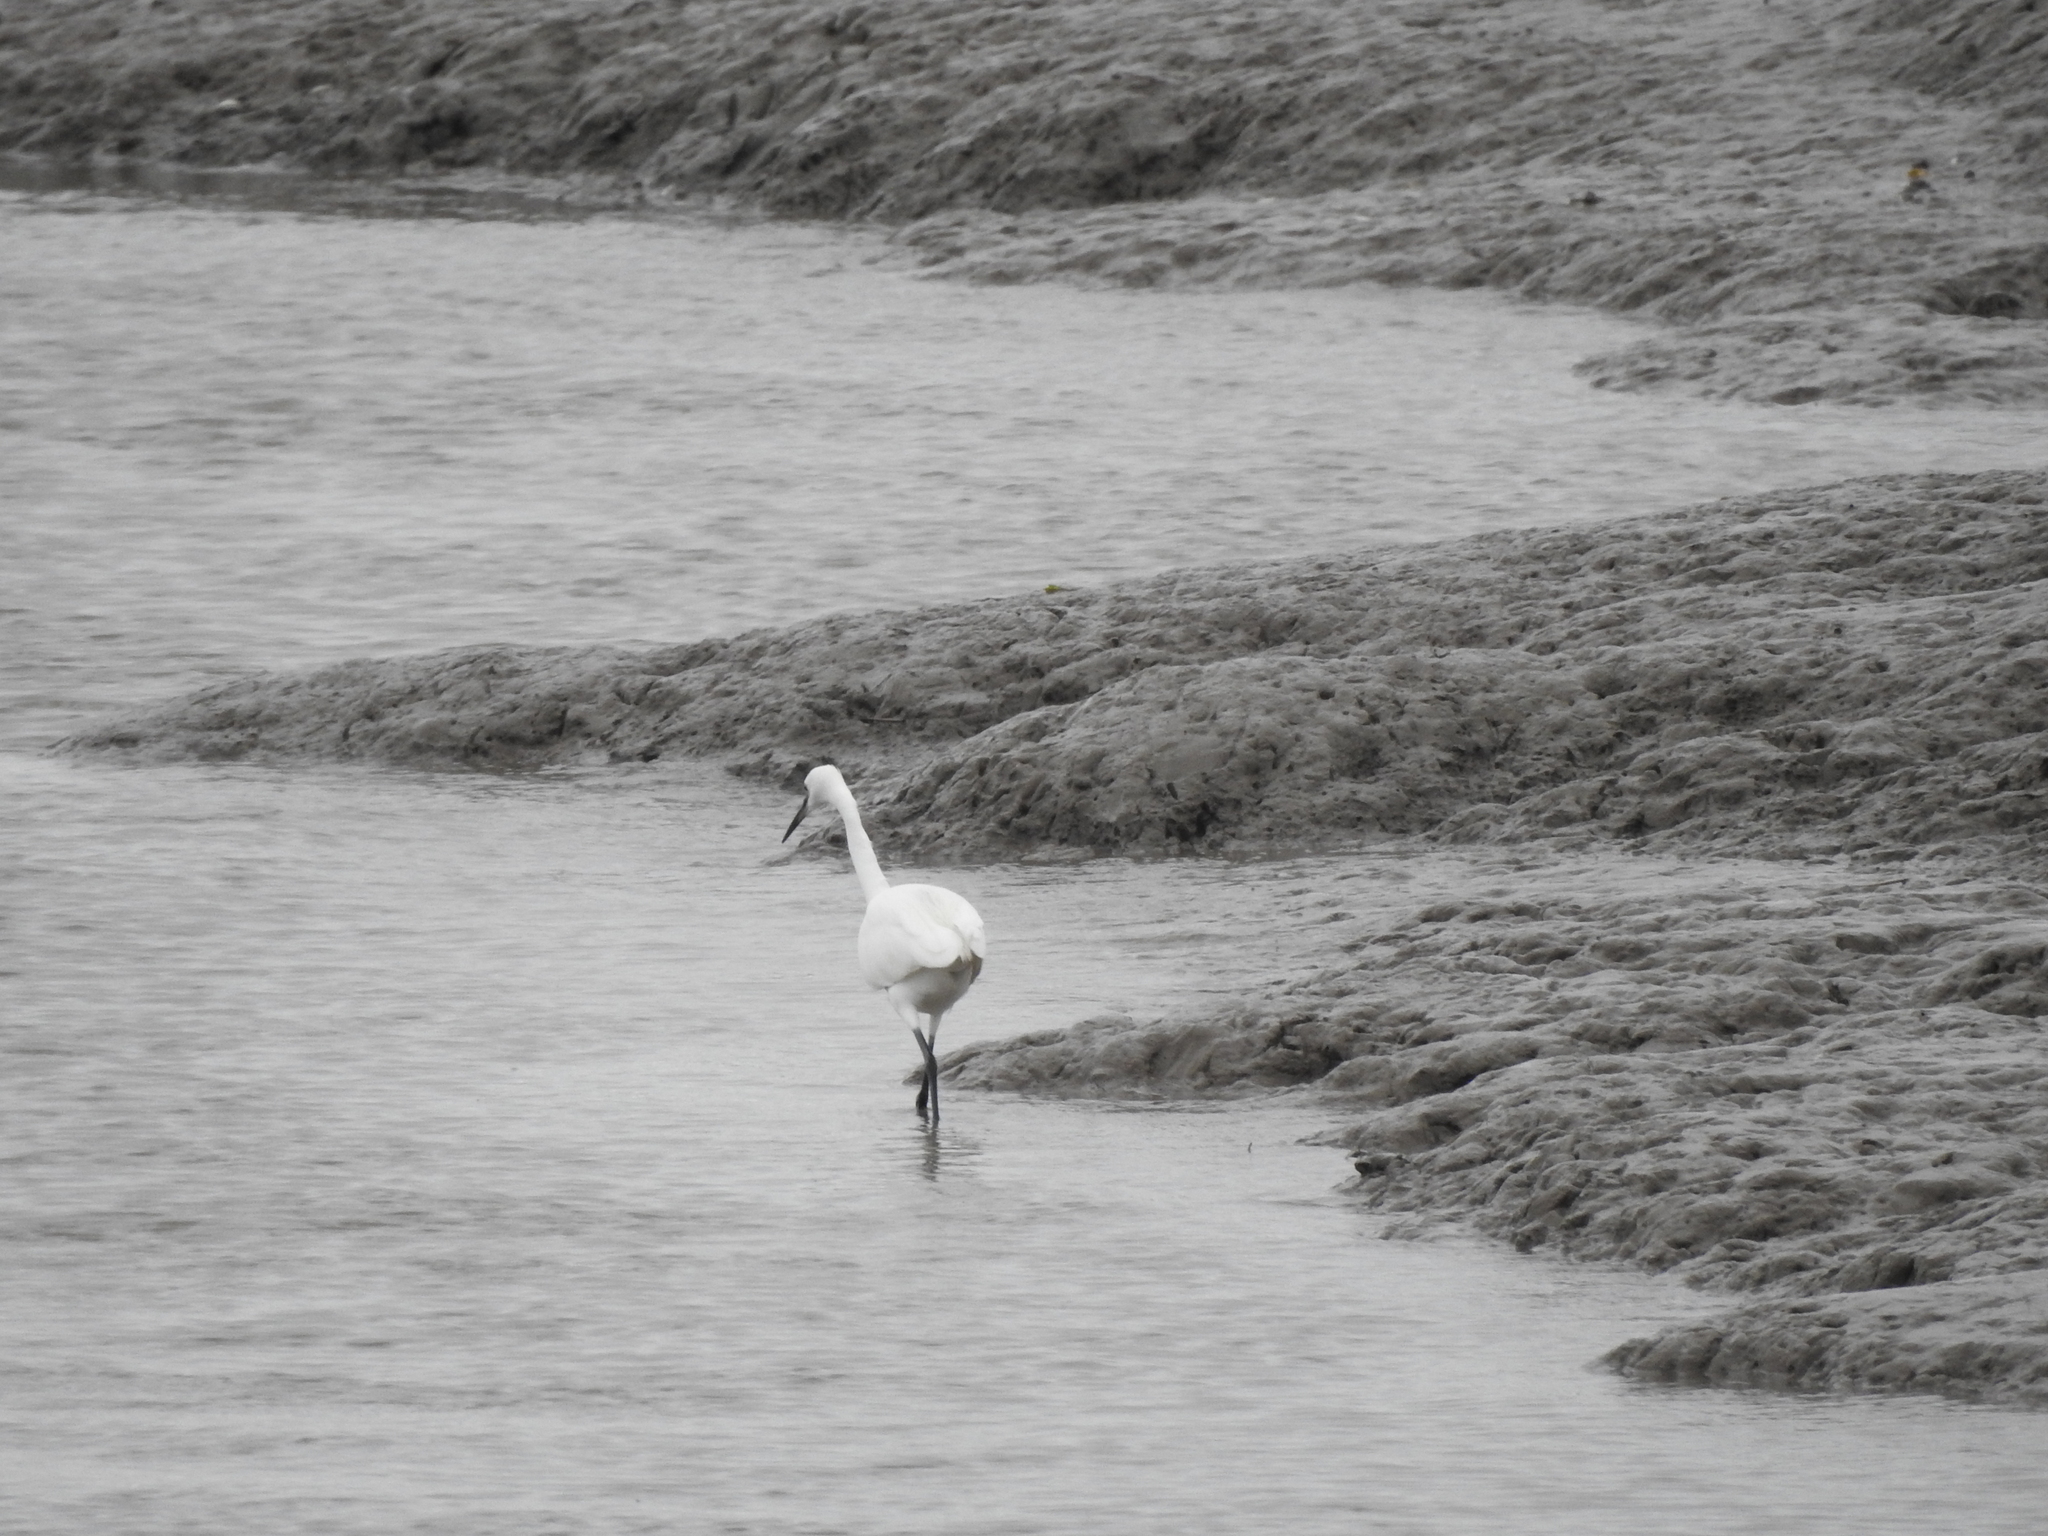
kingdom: Animalia
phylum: Chordata
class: Aves
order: Pelecaniformes
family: Ardeidae
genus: Egretta
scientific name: Egretta garzetta
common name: Little egret
